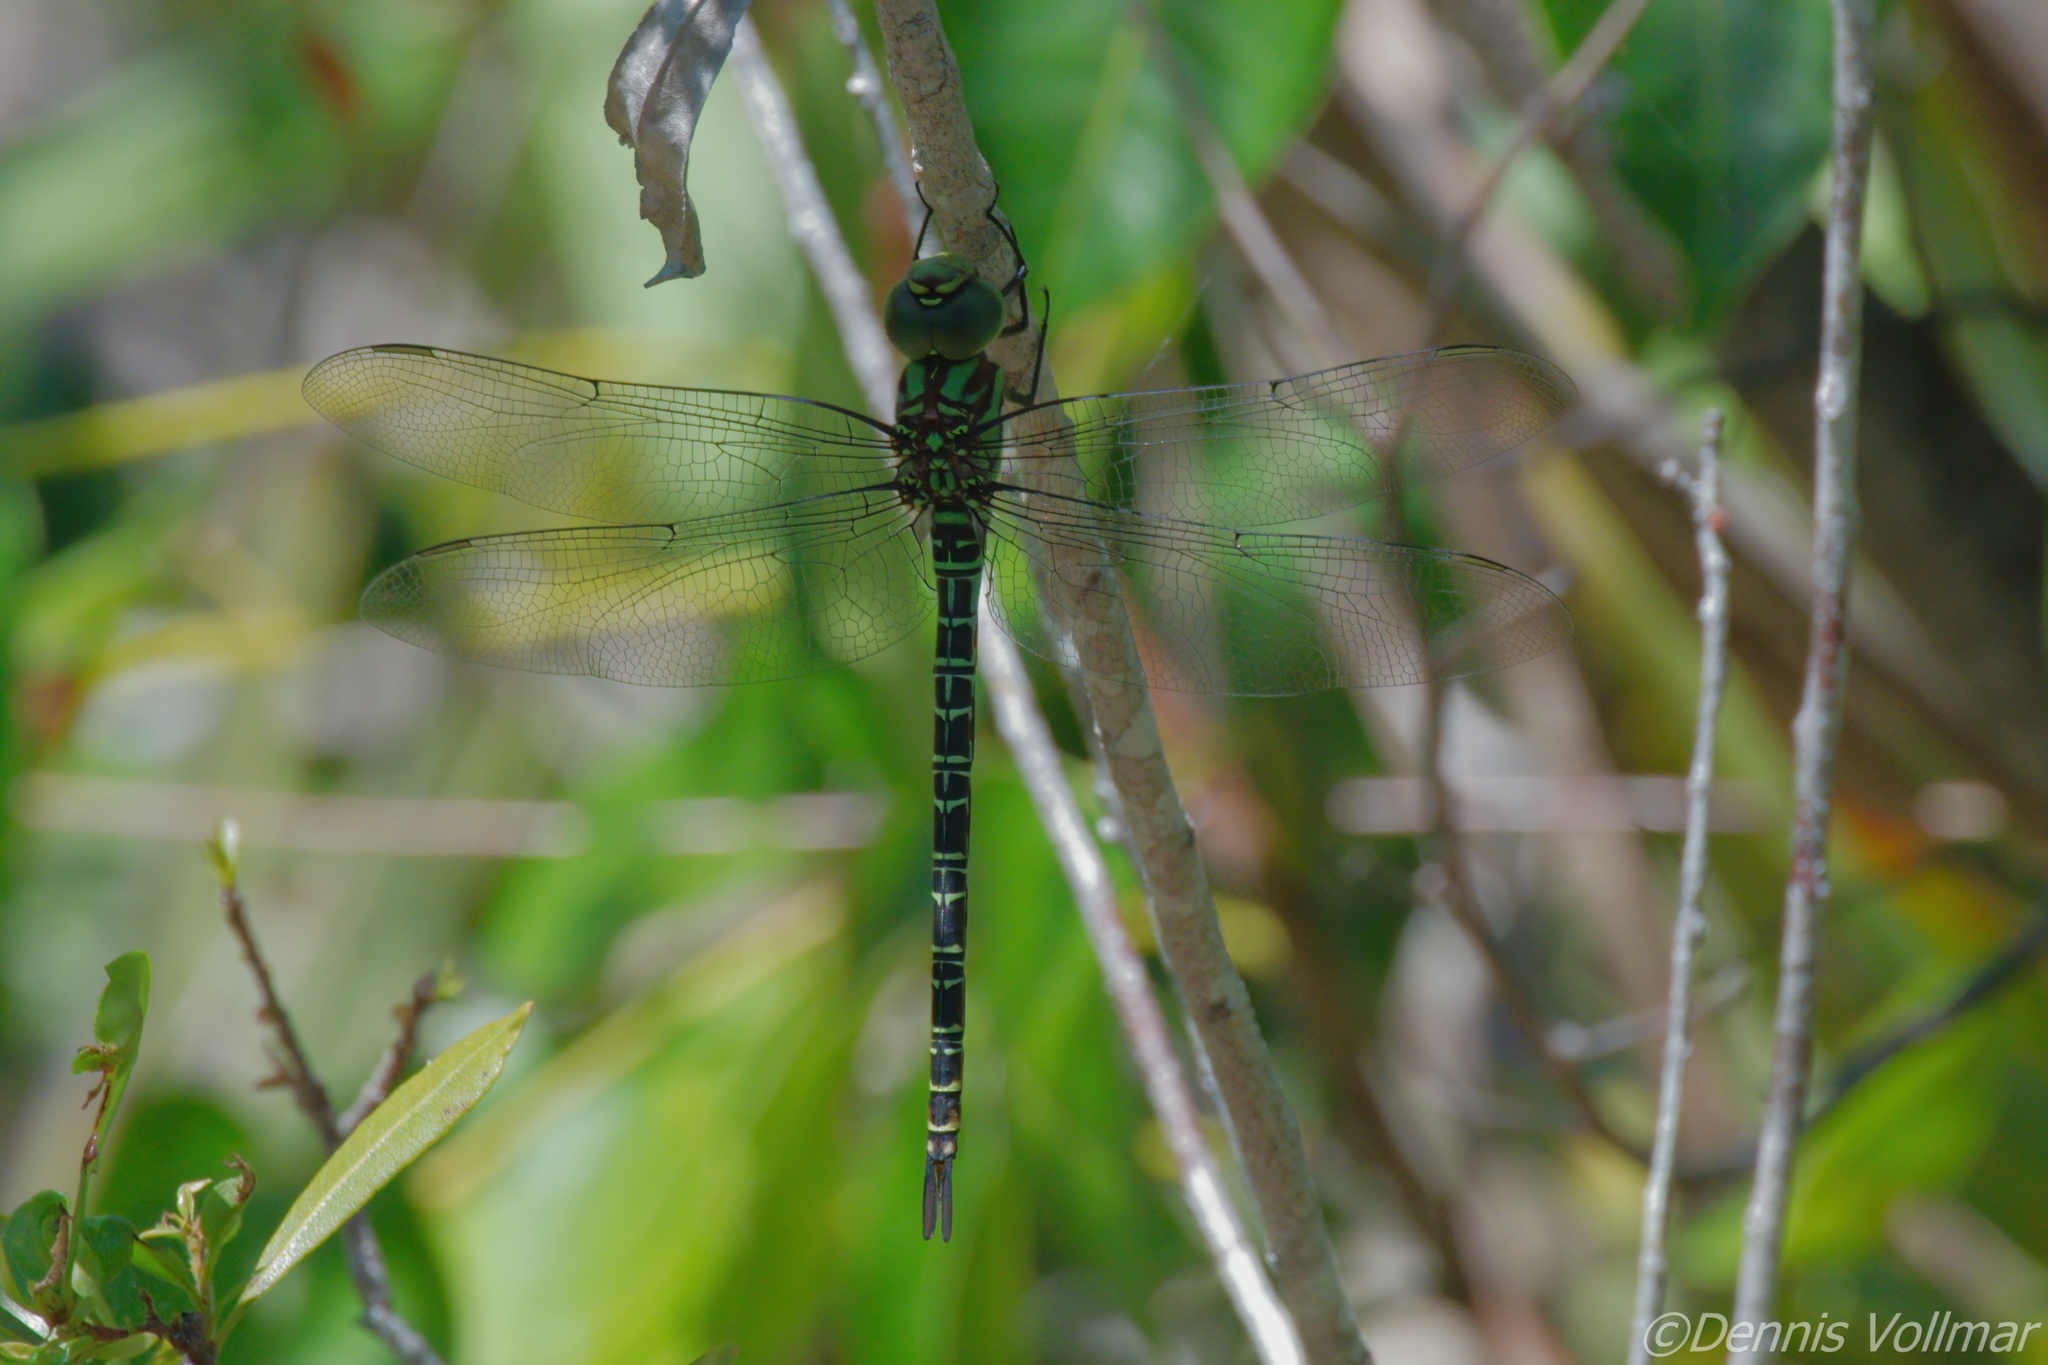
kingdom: Animalia
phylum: Arthropoda
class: Insecta
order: Odonata
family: Aeshnidae
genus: Coryphaeschna
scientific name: Coryphaeschna ingens
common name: Regal darner
